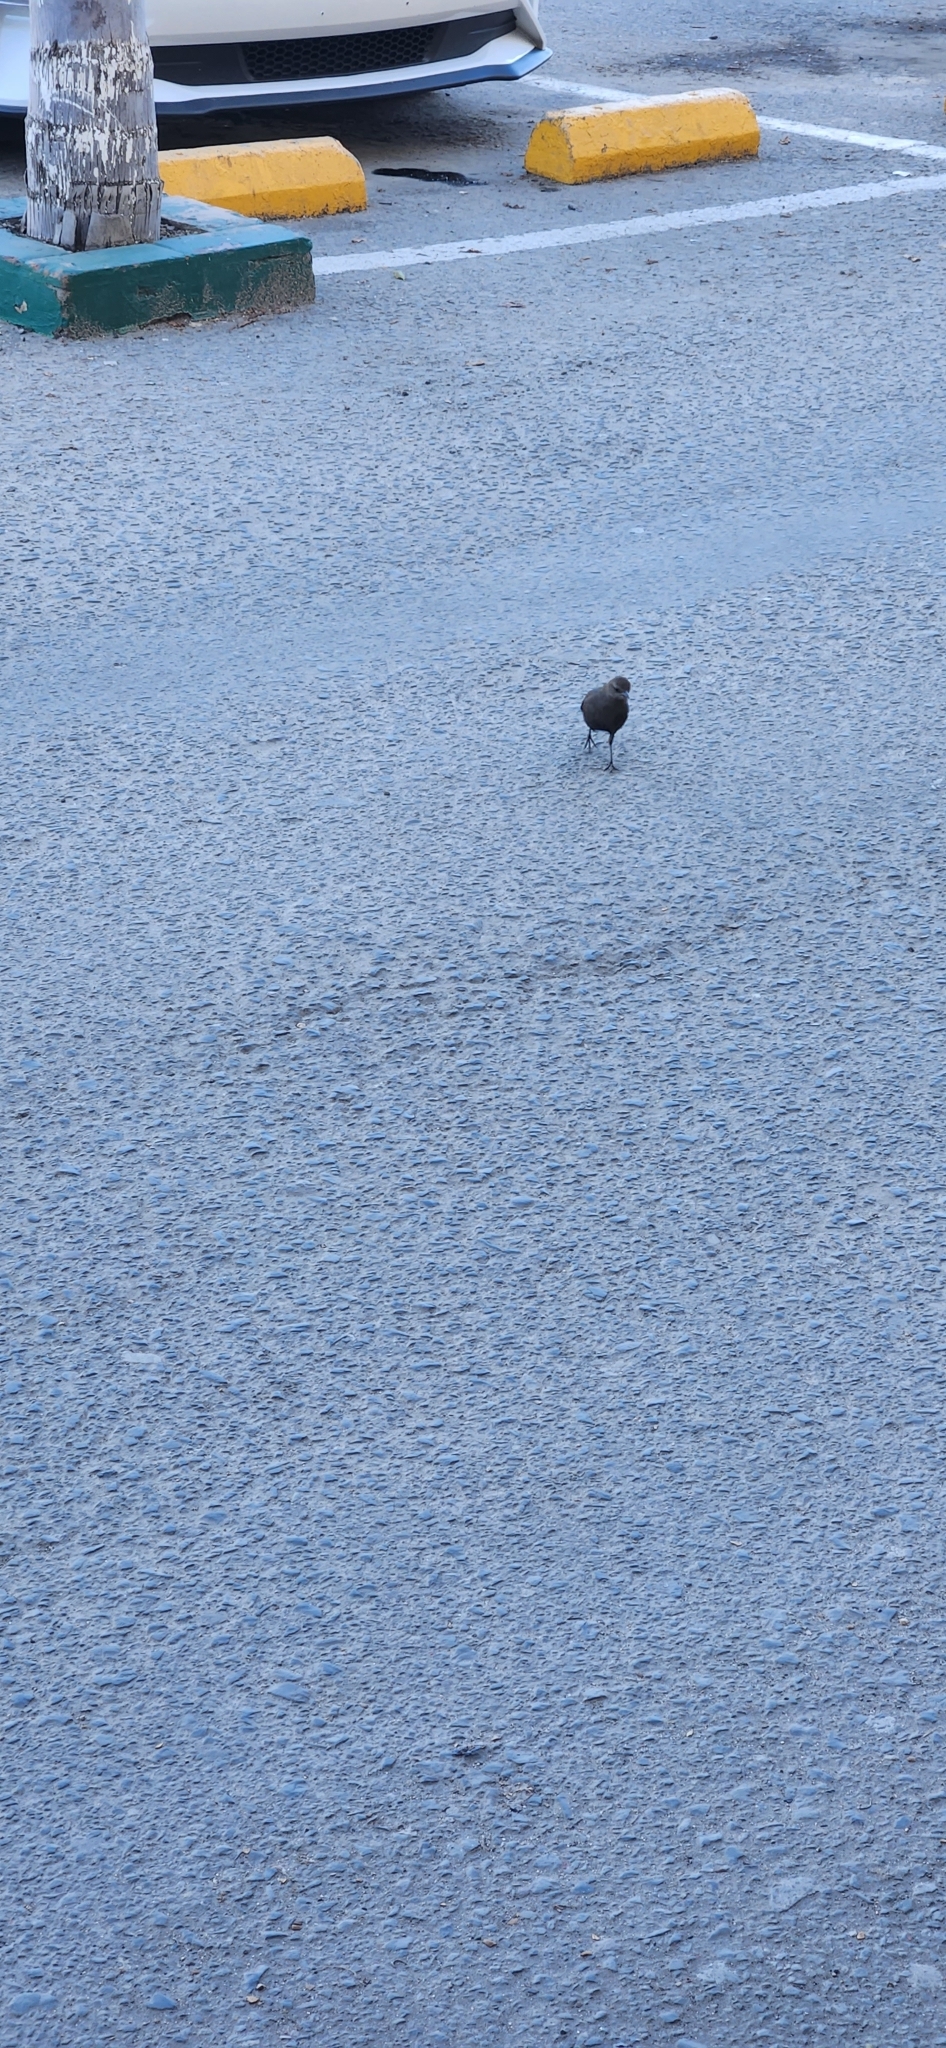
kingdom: Animalia
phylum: Chordata
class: Aves
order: Passeriformes
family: Icteridae
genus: Euphagus
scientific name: Euphagus cyanocephalus
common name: Brewer's blackbird
